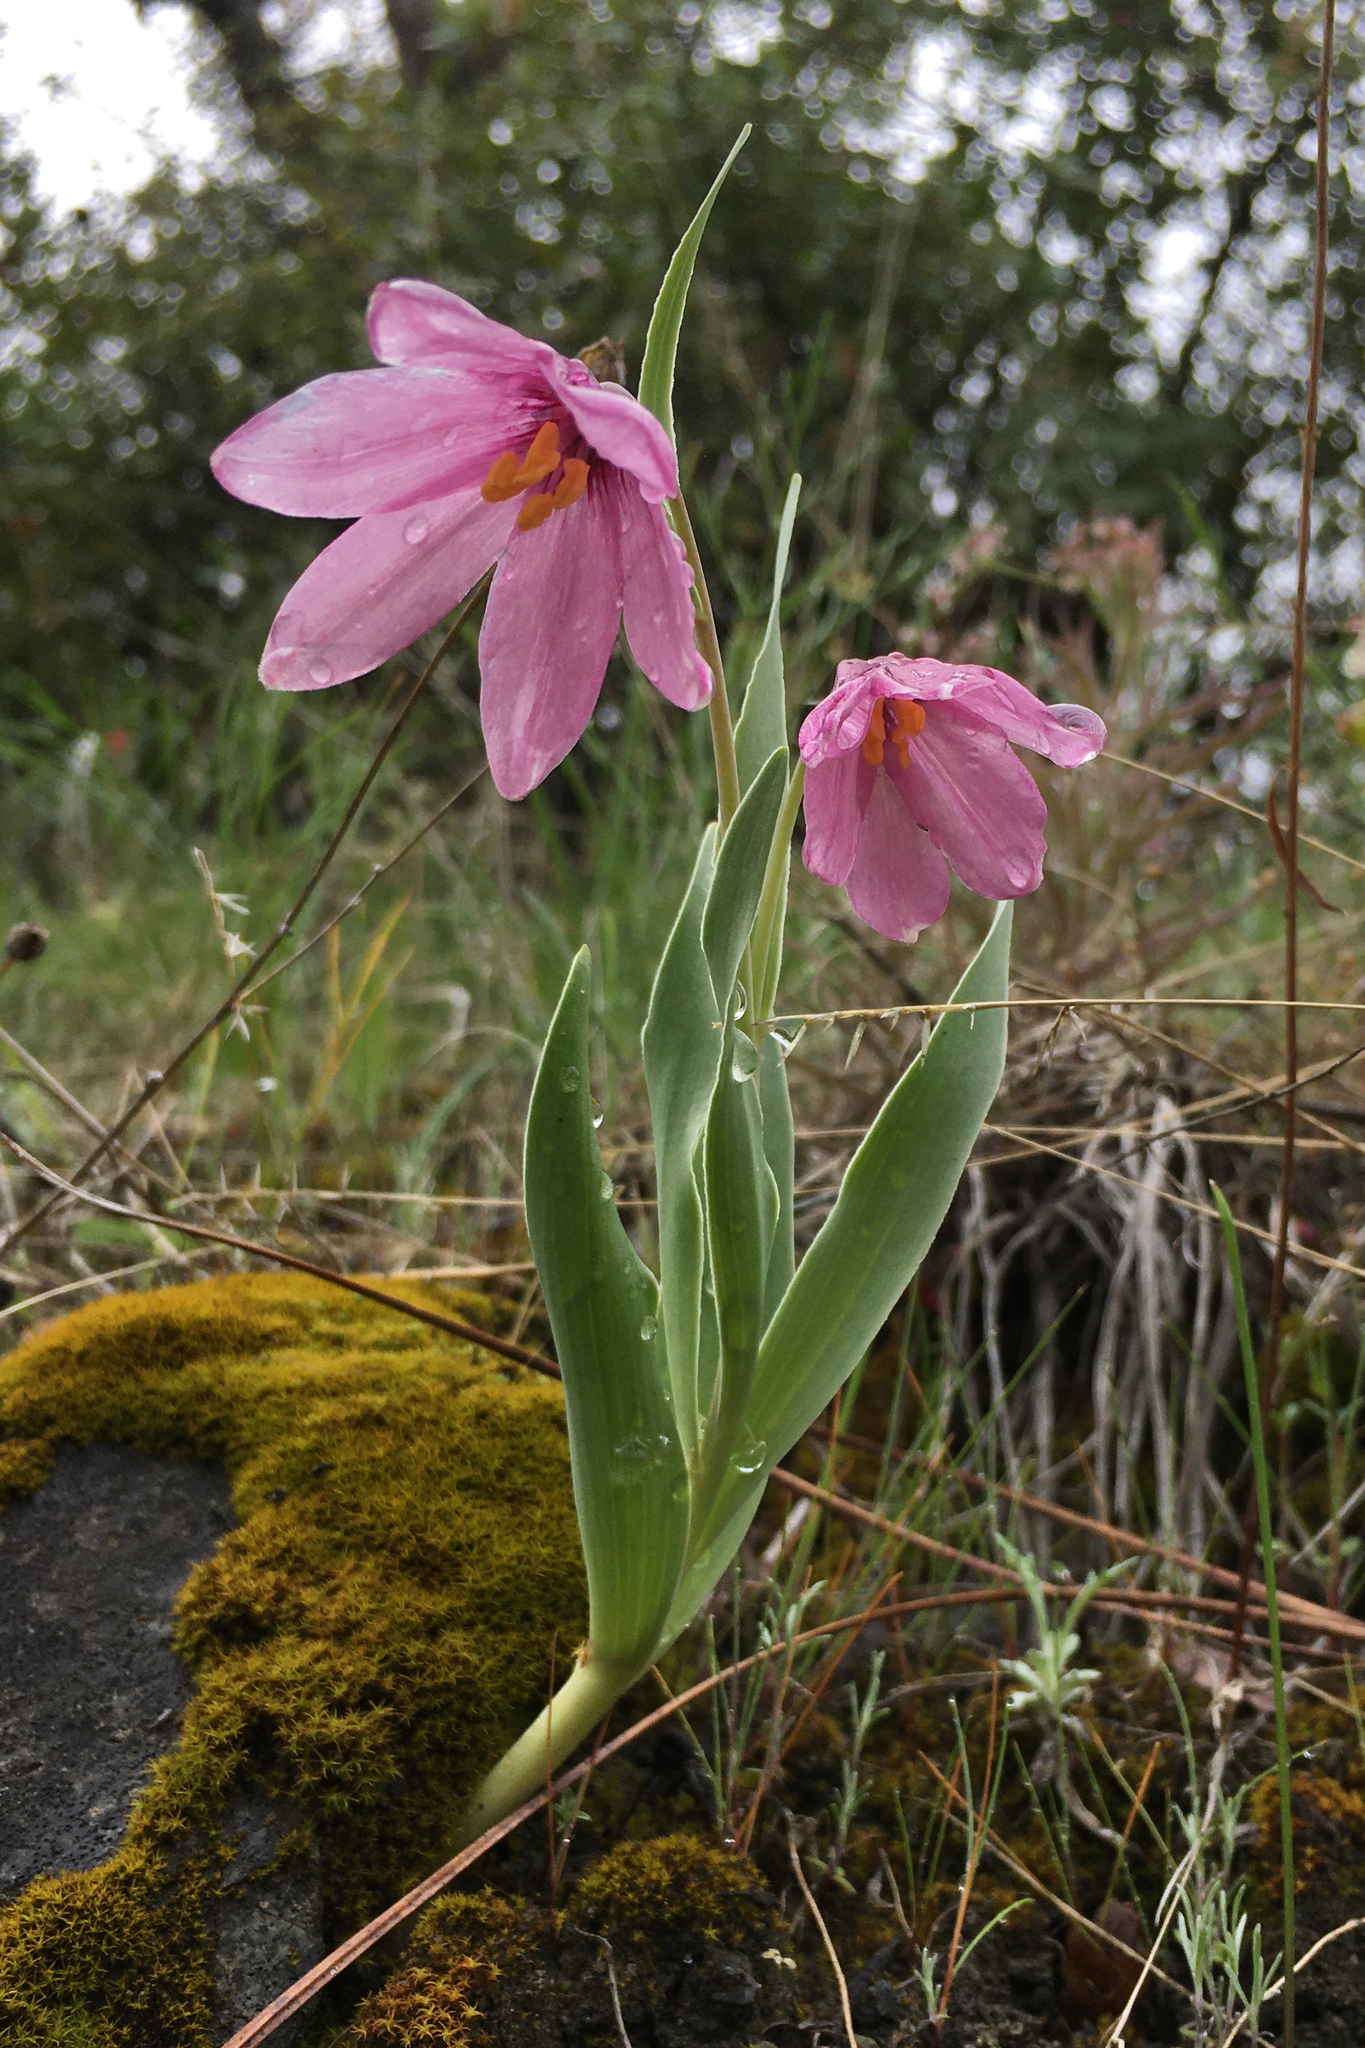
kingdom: Plantae
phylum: Tracheophyta
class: Liliopsida
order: Liliales
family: Liliaceae
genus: Fritillaria
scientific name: Fritillaria pluriflora
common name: Adobe-lily
